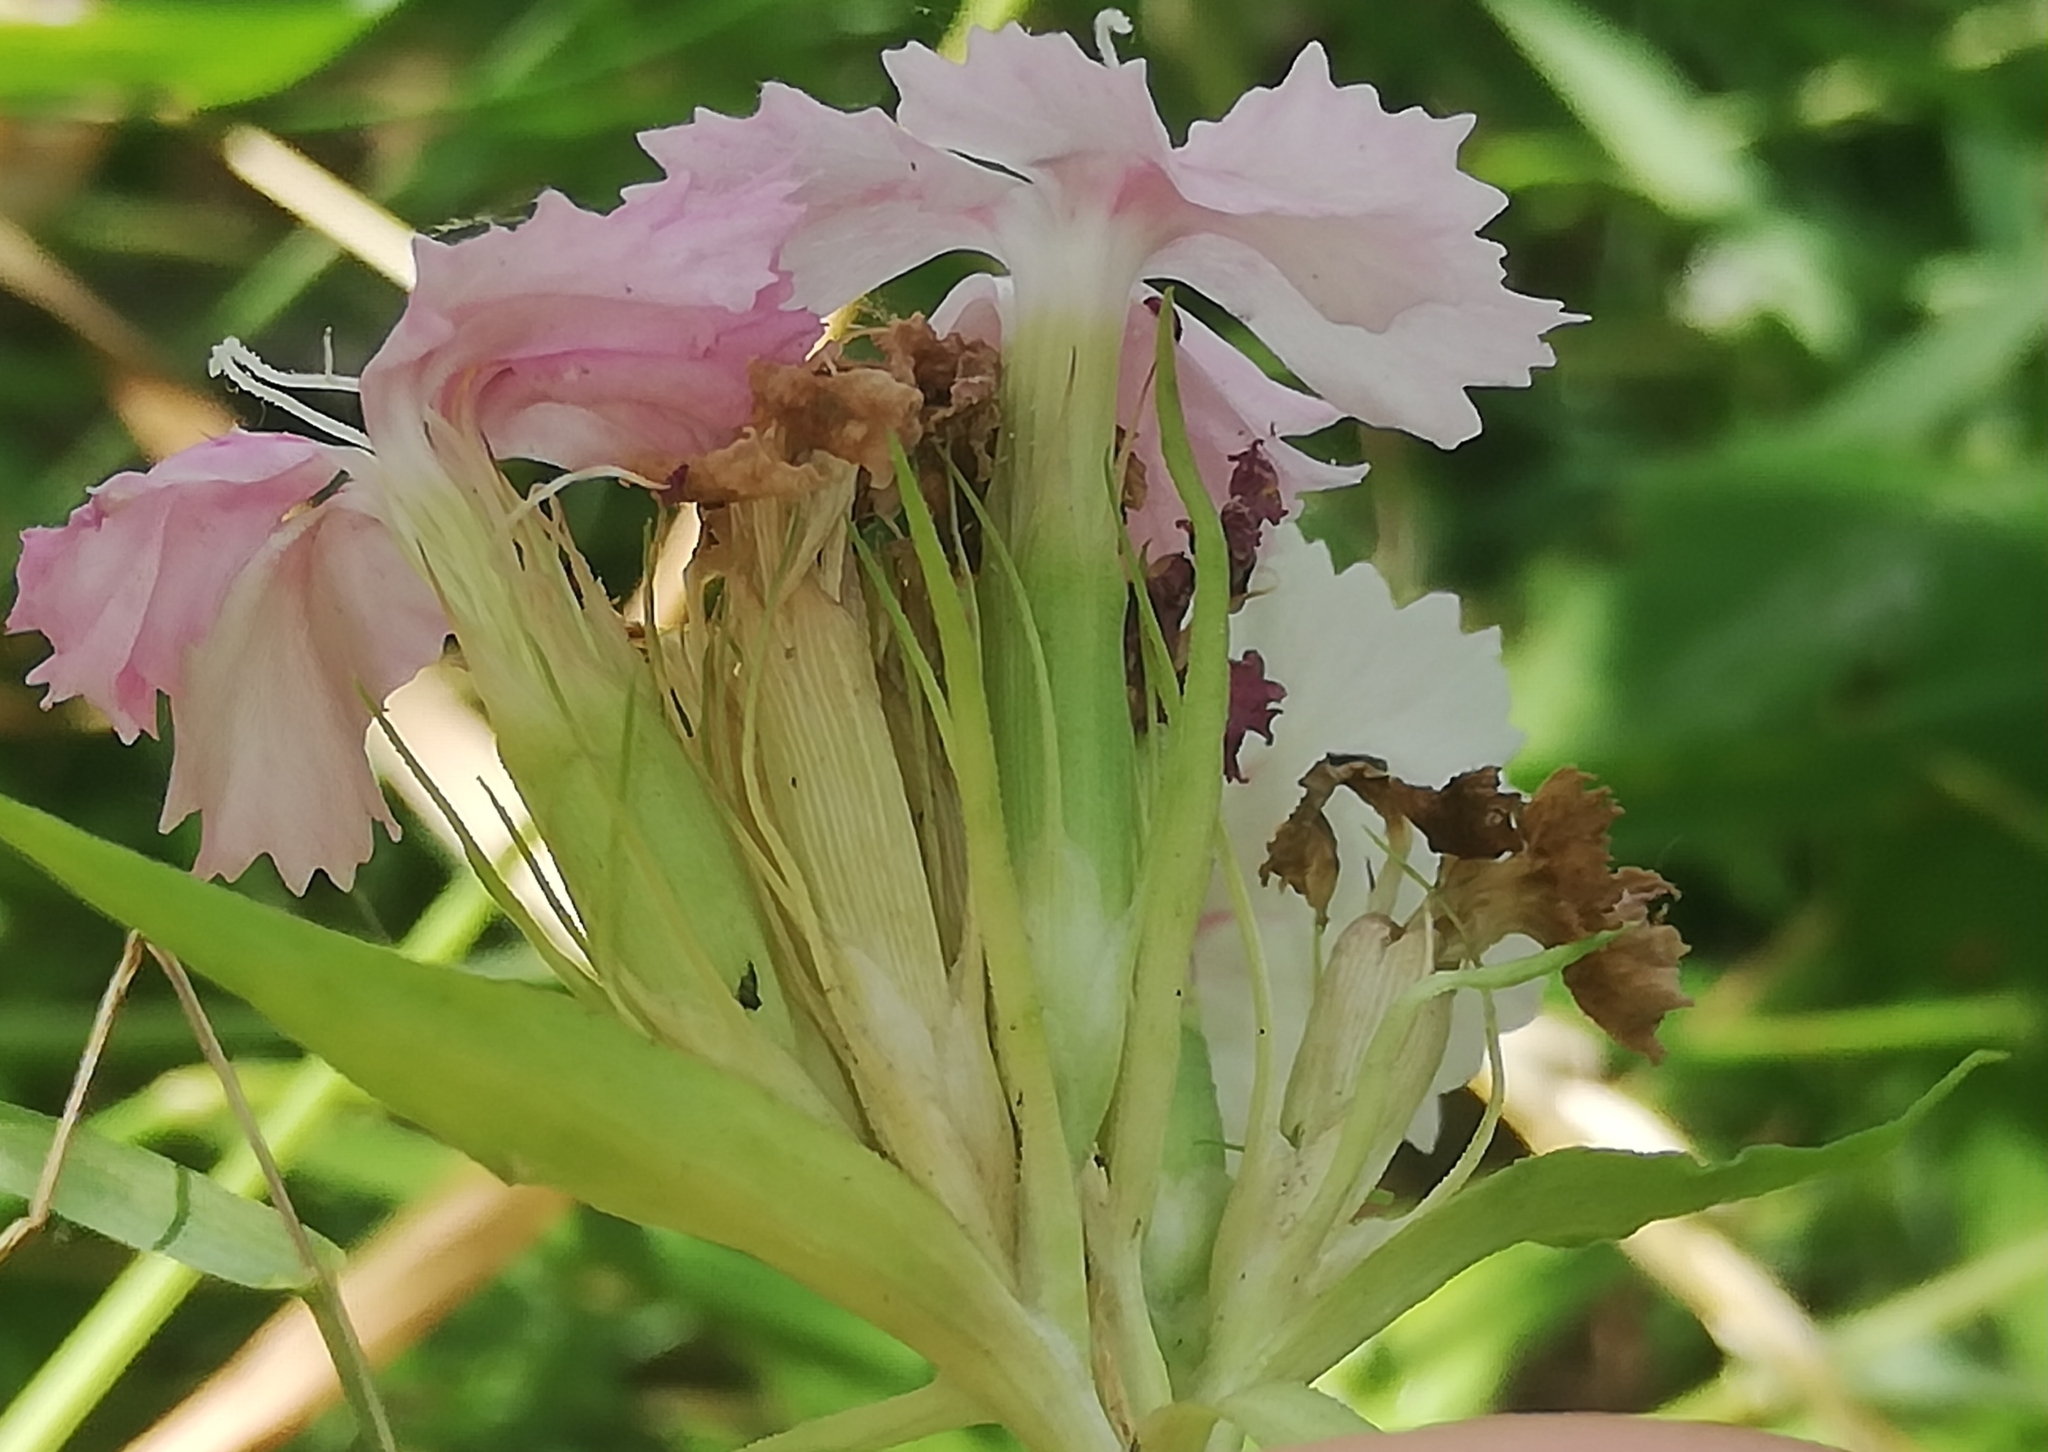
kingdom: Plantae
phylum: Tracheophyta
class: Magnoliopsida
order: Caryophyllales
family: Caryophyllaceae
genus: Dianthus
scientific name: Dianthus barbatus
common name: Sweet-william
